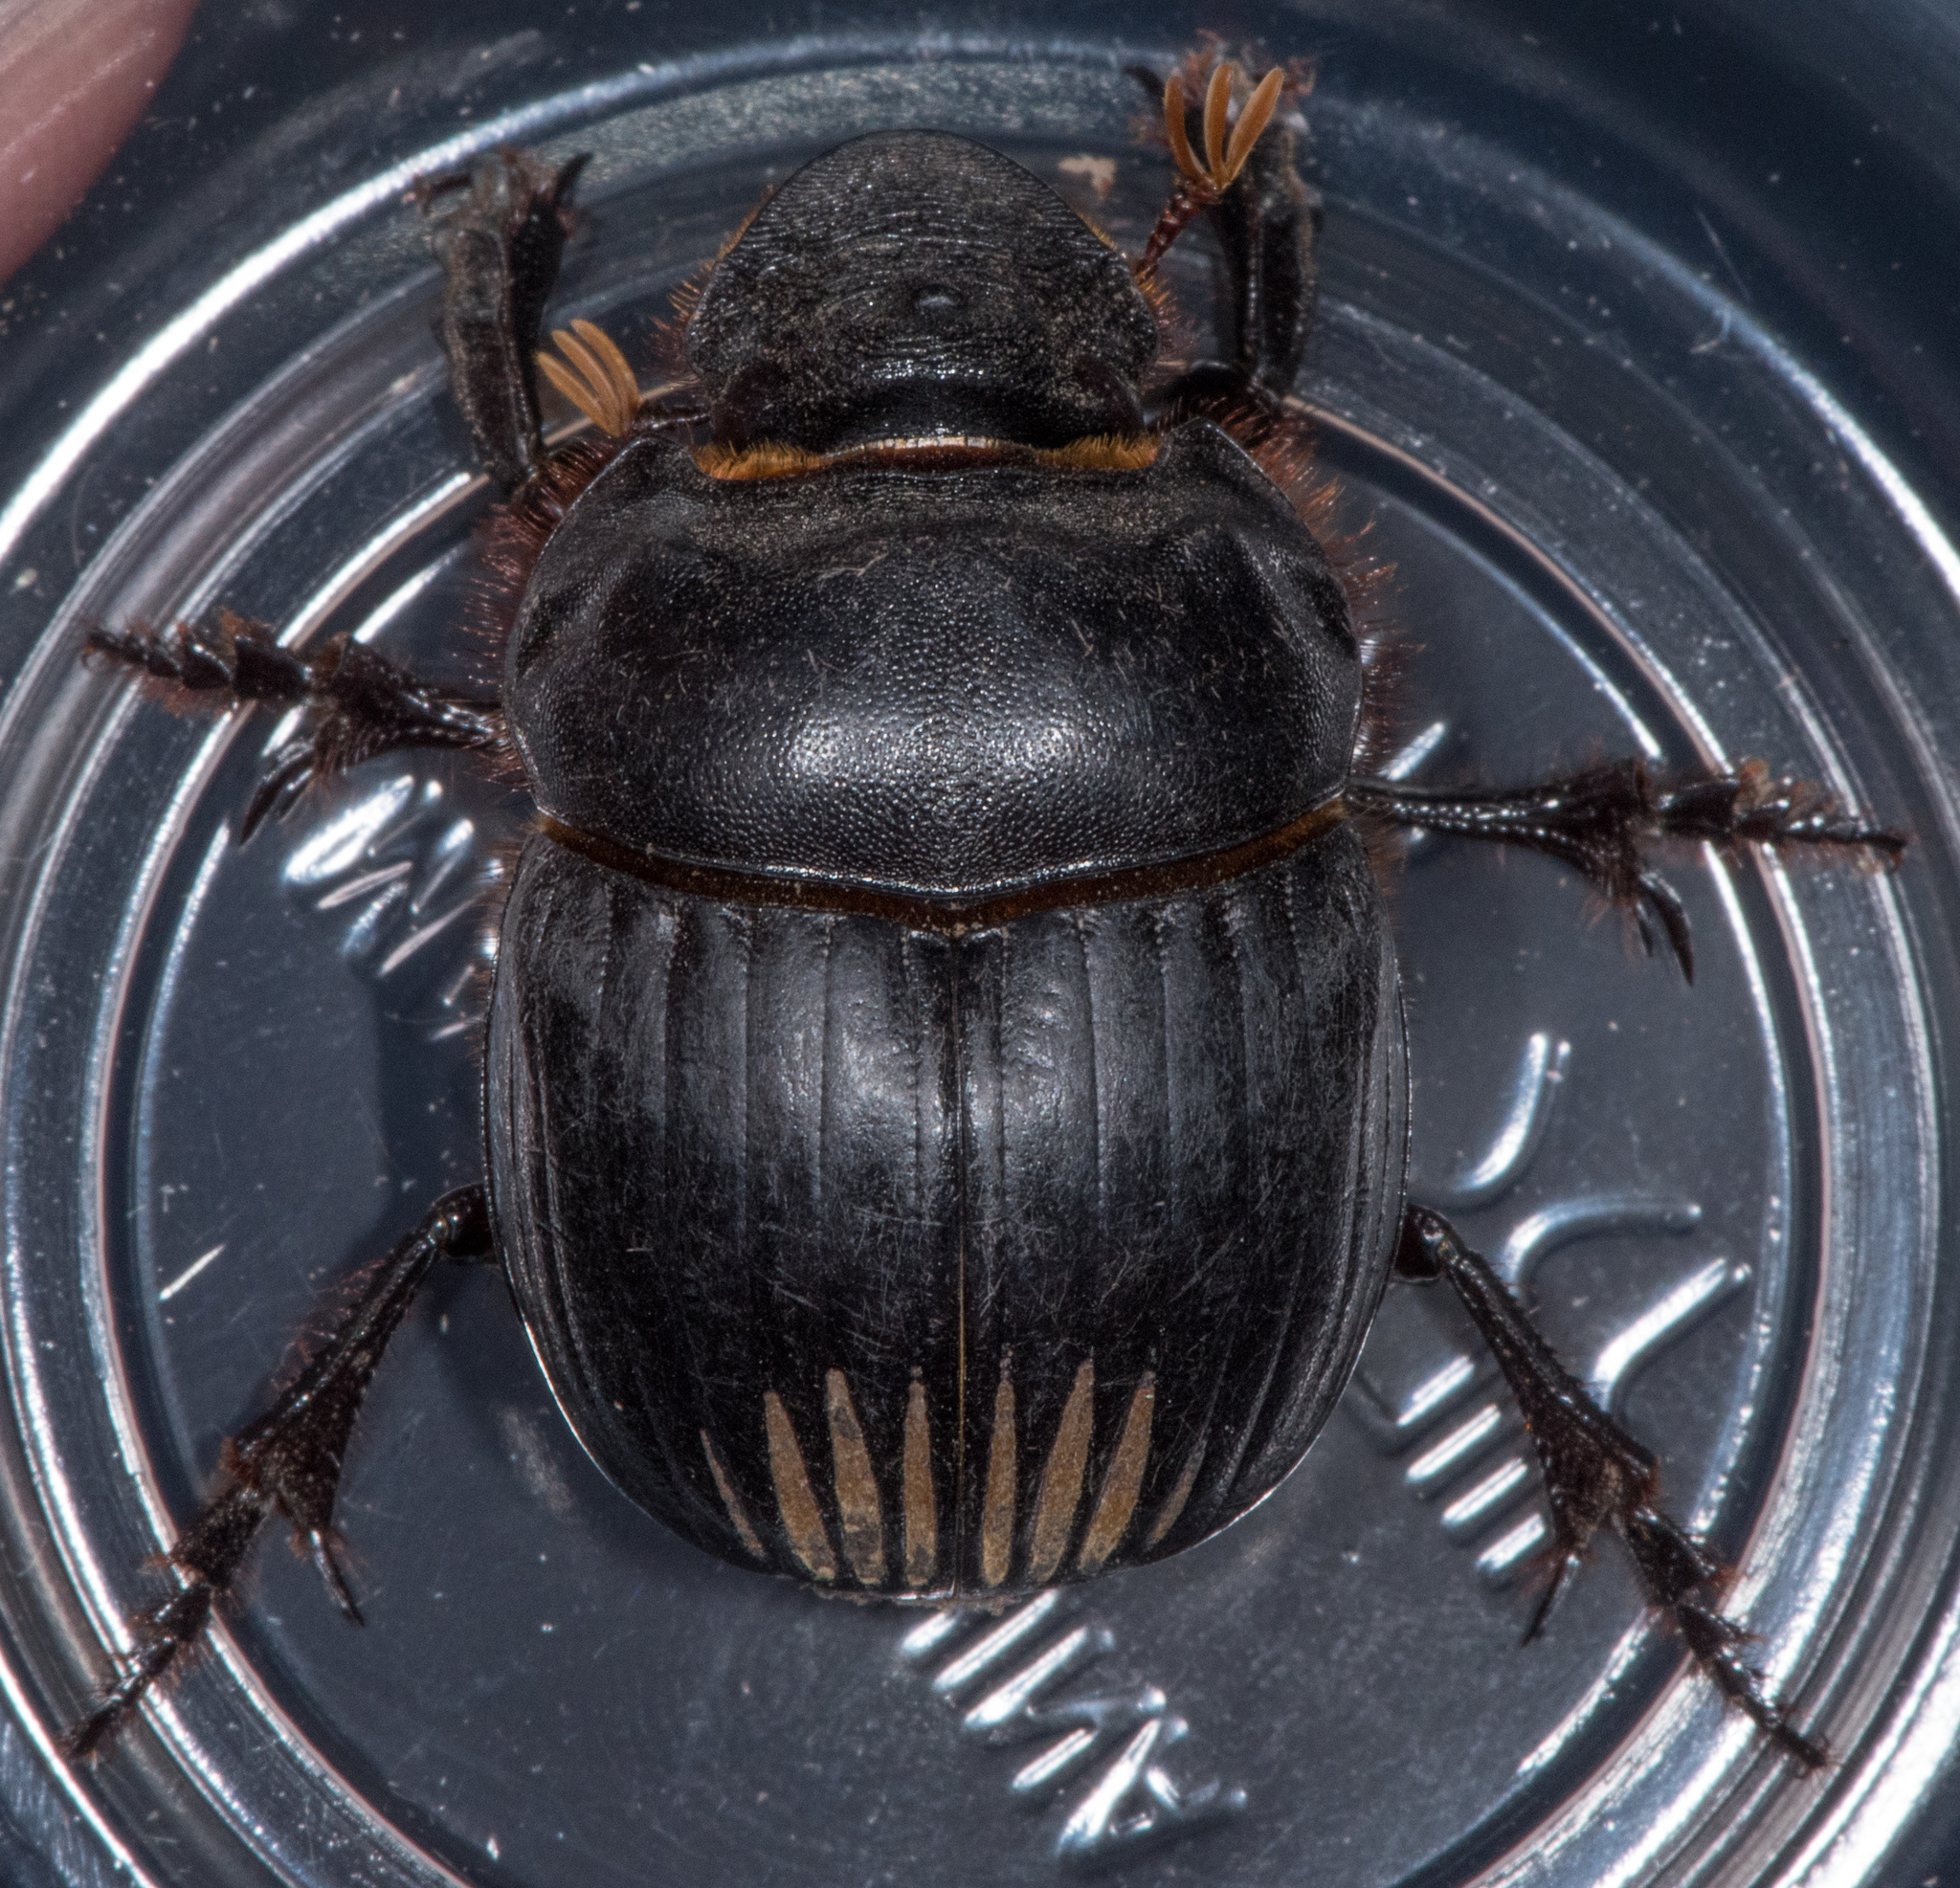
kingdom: Animalia
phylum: Arthropoda
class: Insecta
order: Coleoptera
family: Scarabaeidae
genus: Dichotomius
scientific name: Dichotomius colonicus
